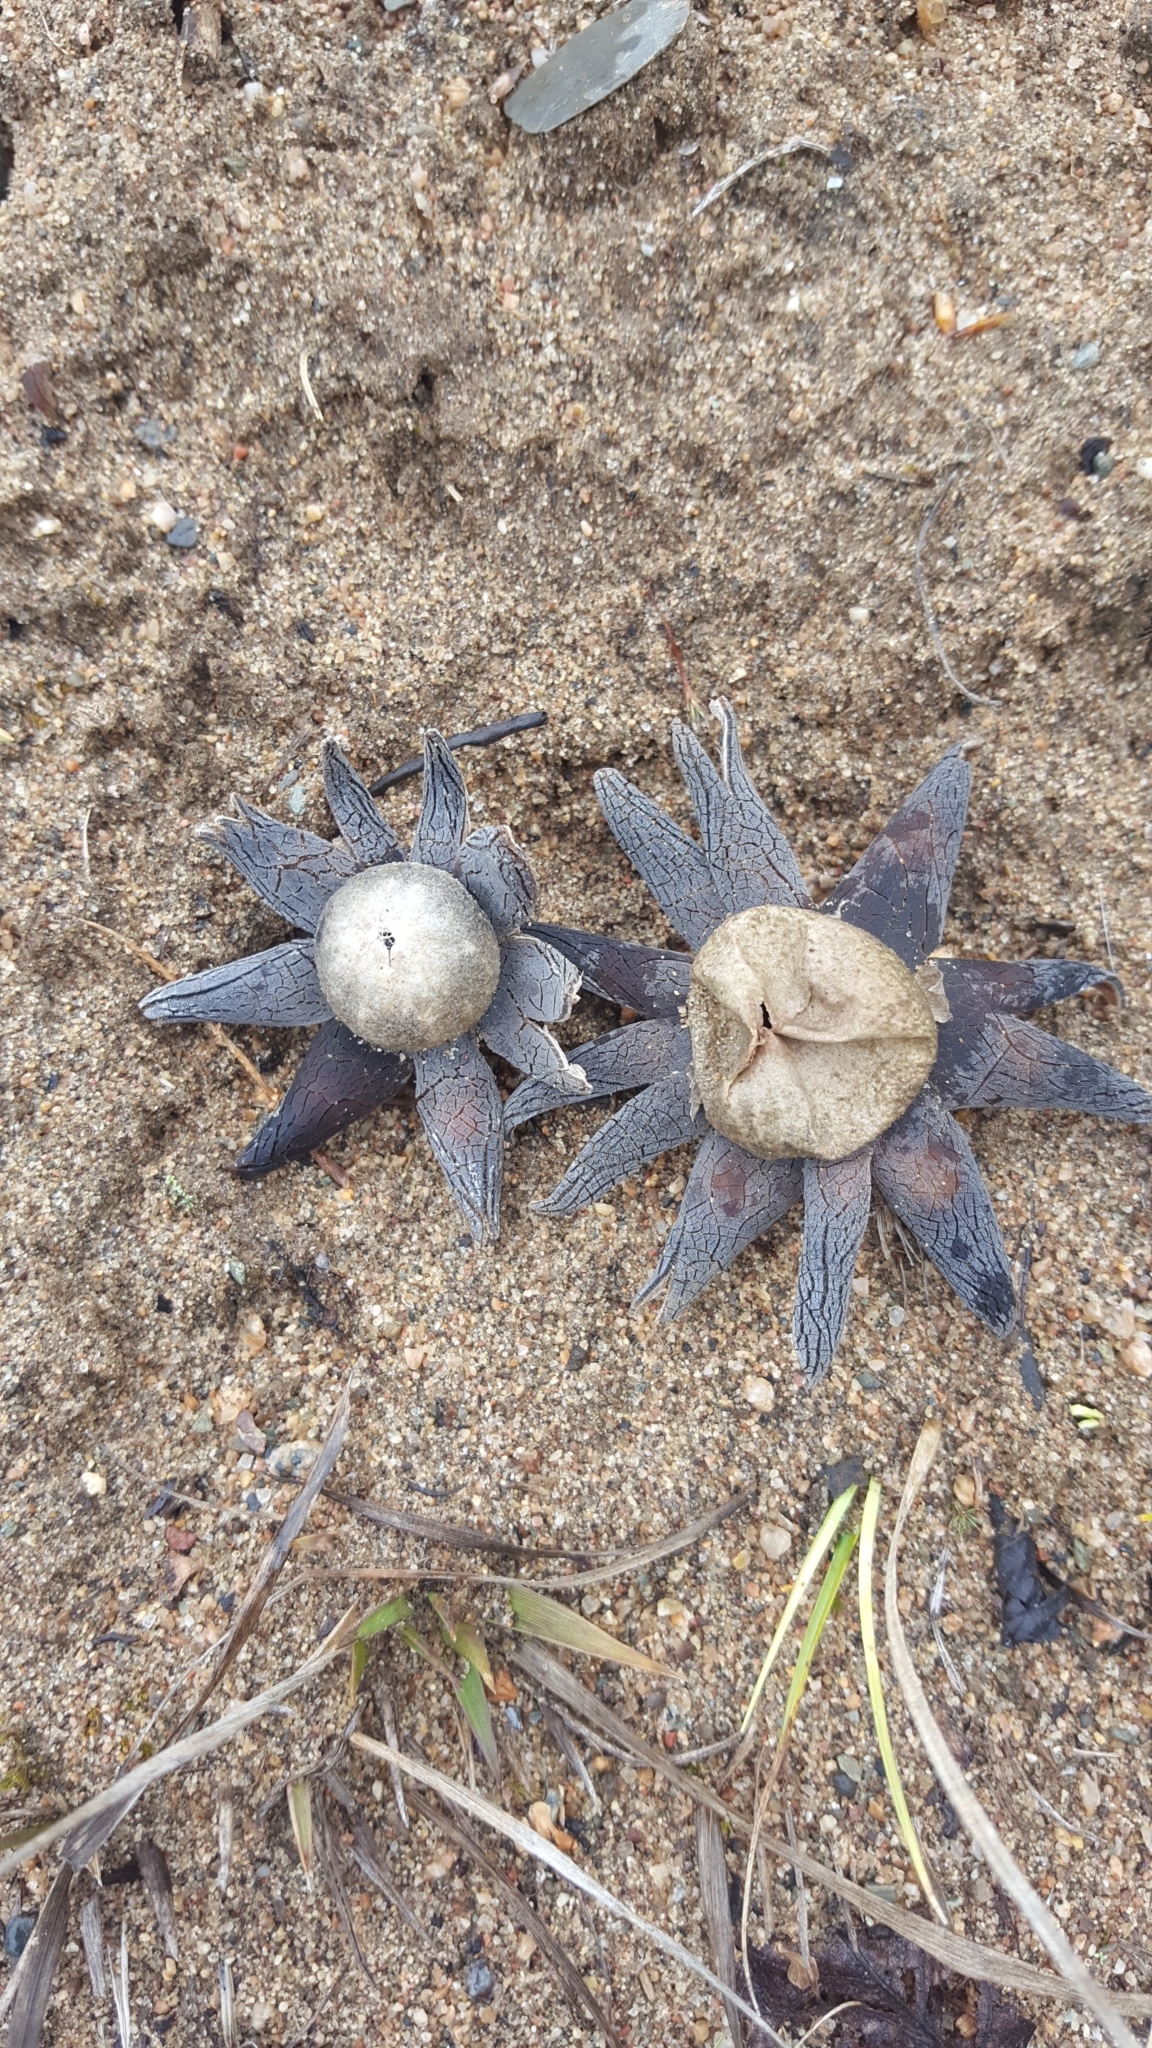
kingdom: Fungi
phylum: Basidiomycota
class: Agaricomycetes
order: Boletales
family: Diplocystidiaceae
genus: Astraeus
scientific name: Astraeus smithii
